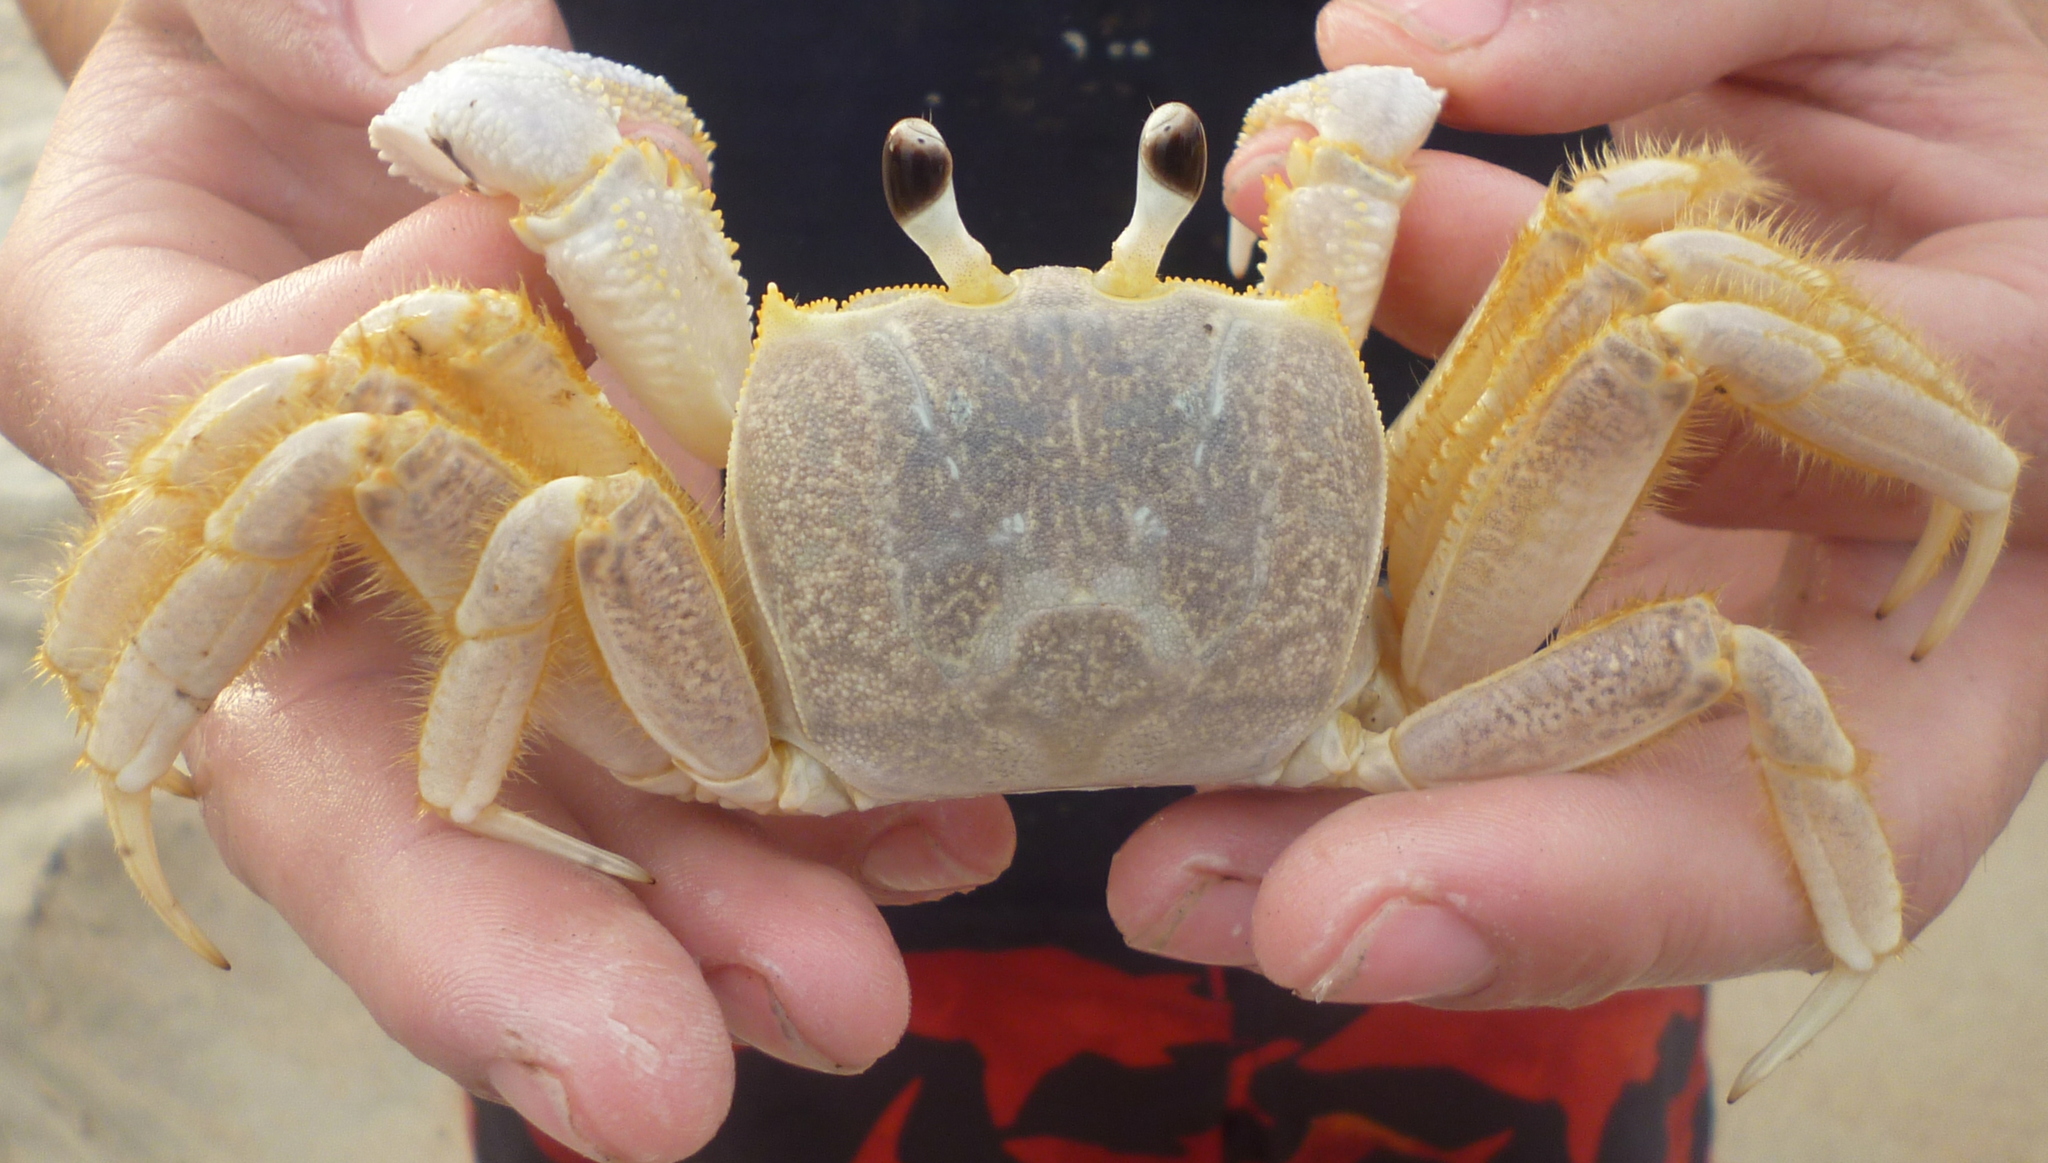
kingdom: Animalia
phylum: Arthropoda
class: Malacostraca
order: Decapoda
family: Ocypodidae
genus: Ocypode
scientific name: Ocypode quadrata
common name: Ghost crab
